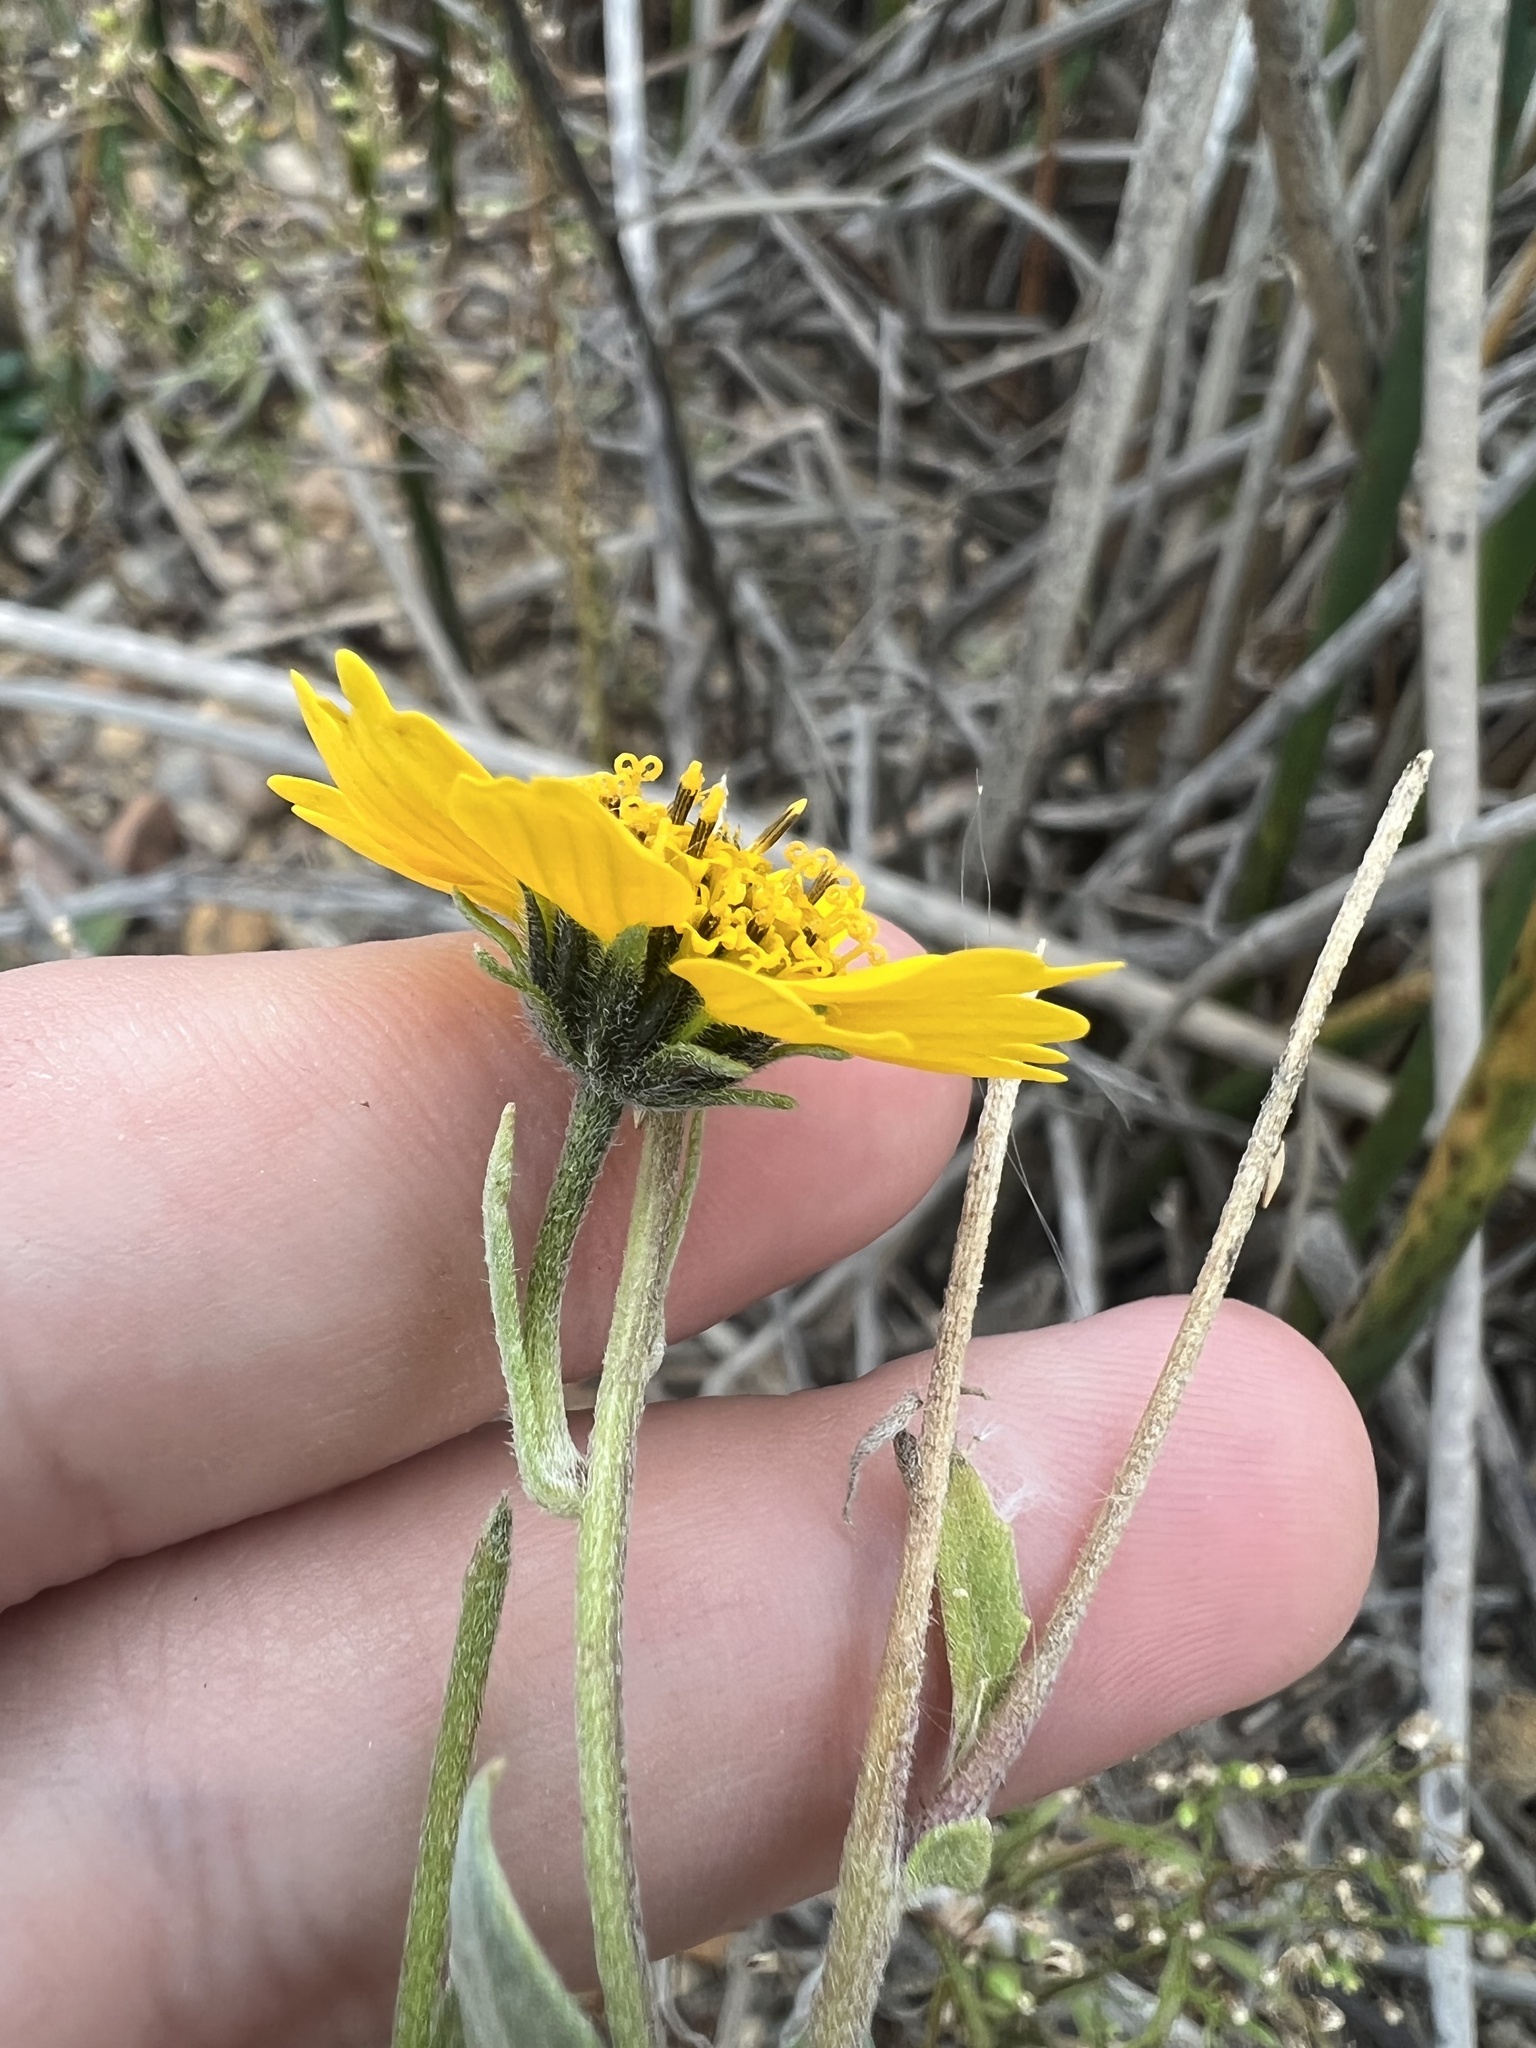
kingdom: Plantae
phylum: Tracheophyta
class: Magnoliopsida
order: Asterales
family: Asteraceae
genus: Verbesina
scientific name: Verbesina encelioides
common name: Golden crownbeard
